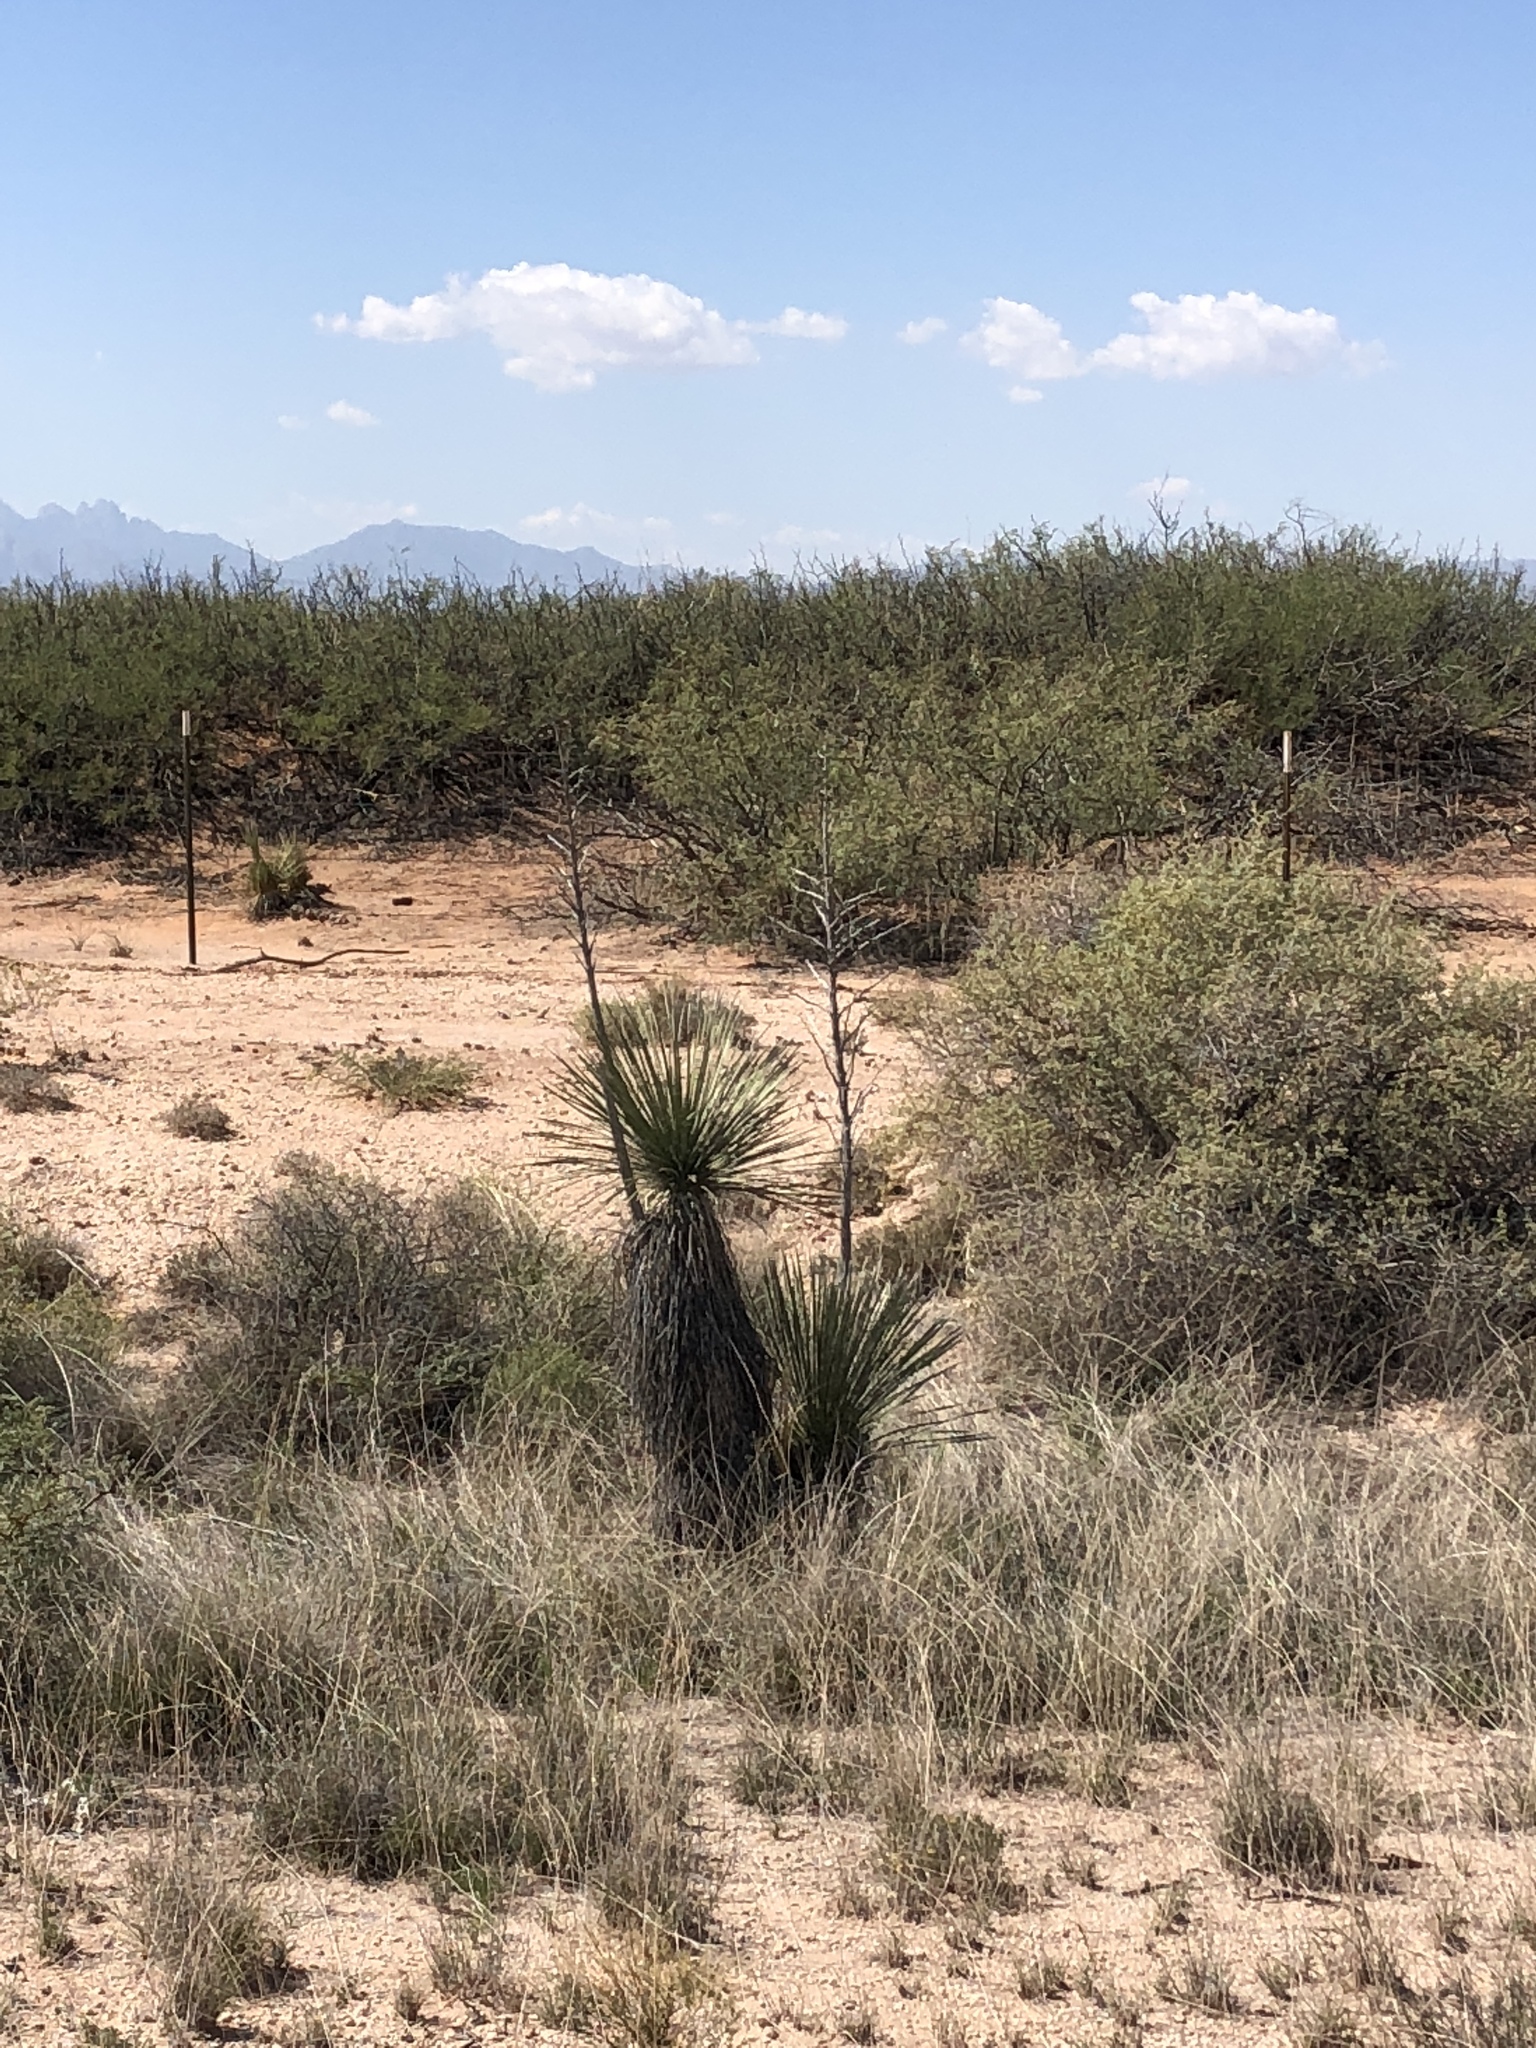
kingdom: Plantae
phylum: Tracheophyta
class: Liliopsida
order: Asparagales
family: Asparagaceae
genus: Yucca
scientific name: Yucca elata
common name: Palmella
